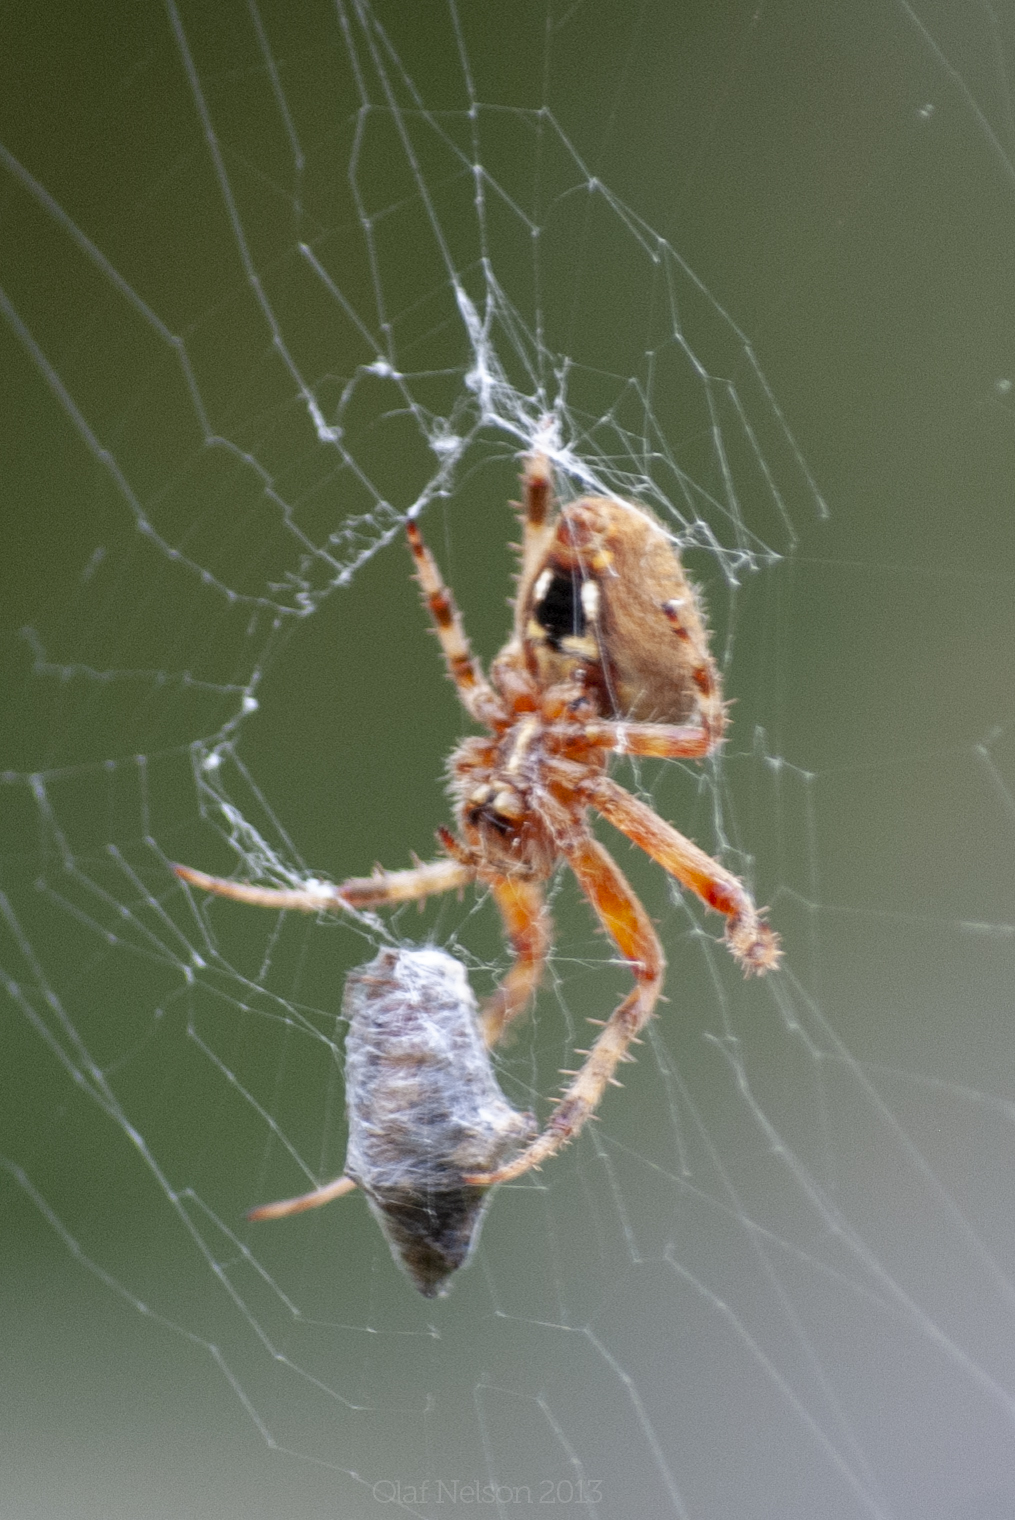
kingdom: Animalia
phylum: Arthropoda
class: Arachnida
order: Araneae
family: Araneidae
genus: Neoscona
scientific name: Neoscona crucifera
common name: Spotted orbweaver
